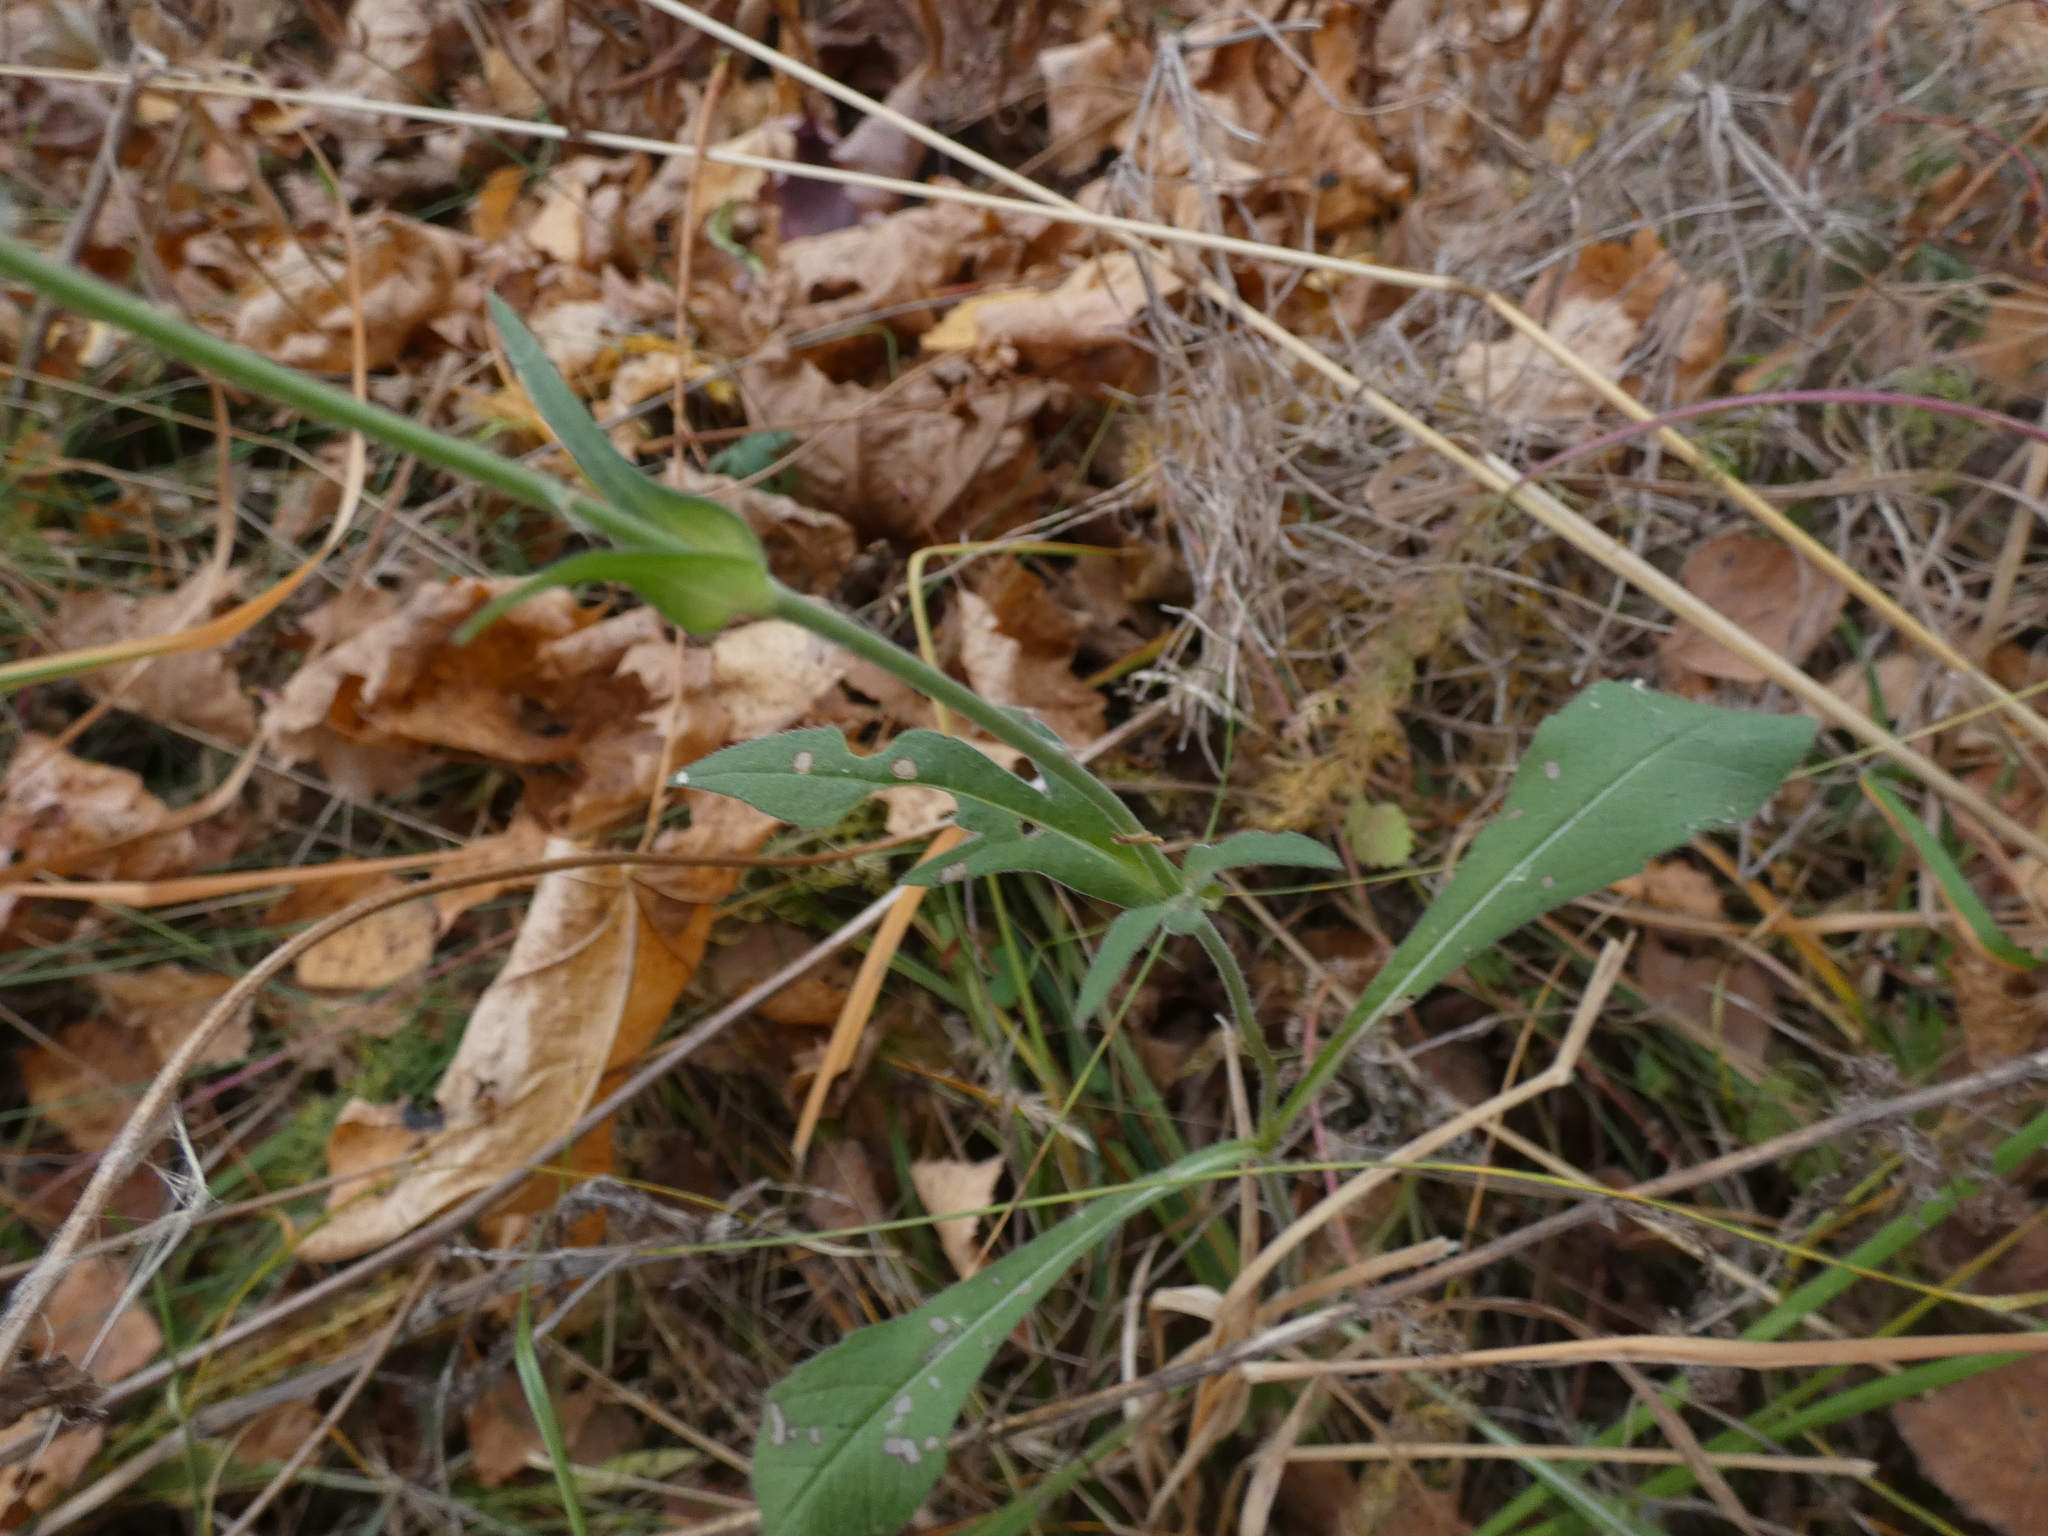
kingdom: Plantae
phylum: Tracheophyta
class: Magnoliopsida
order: Dipsacales
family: Caprifoliaceae
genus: Knautia
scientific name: Knautia arvensis
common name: Field scabiosa
